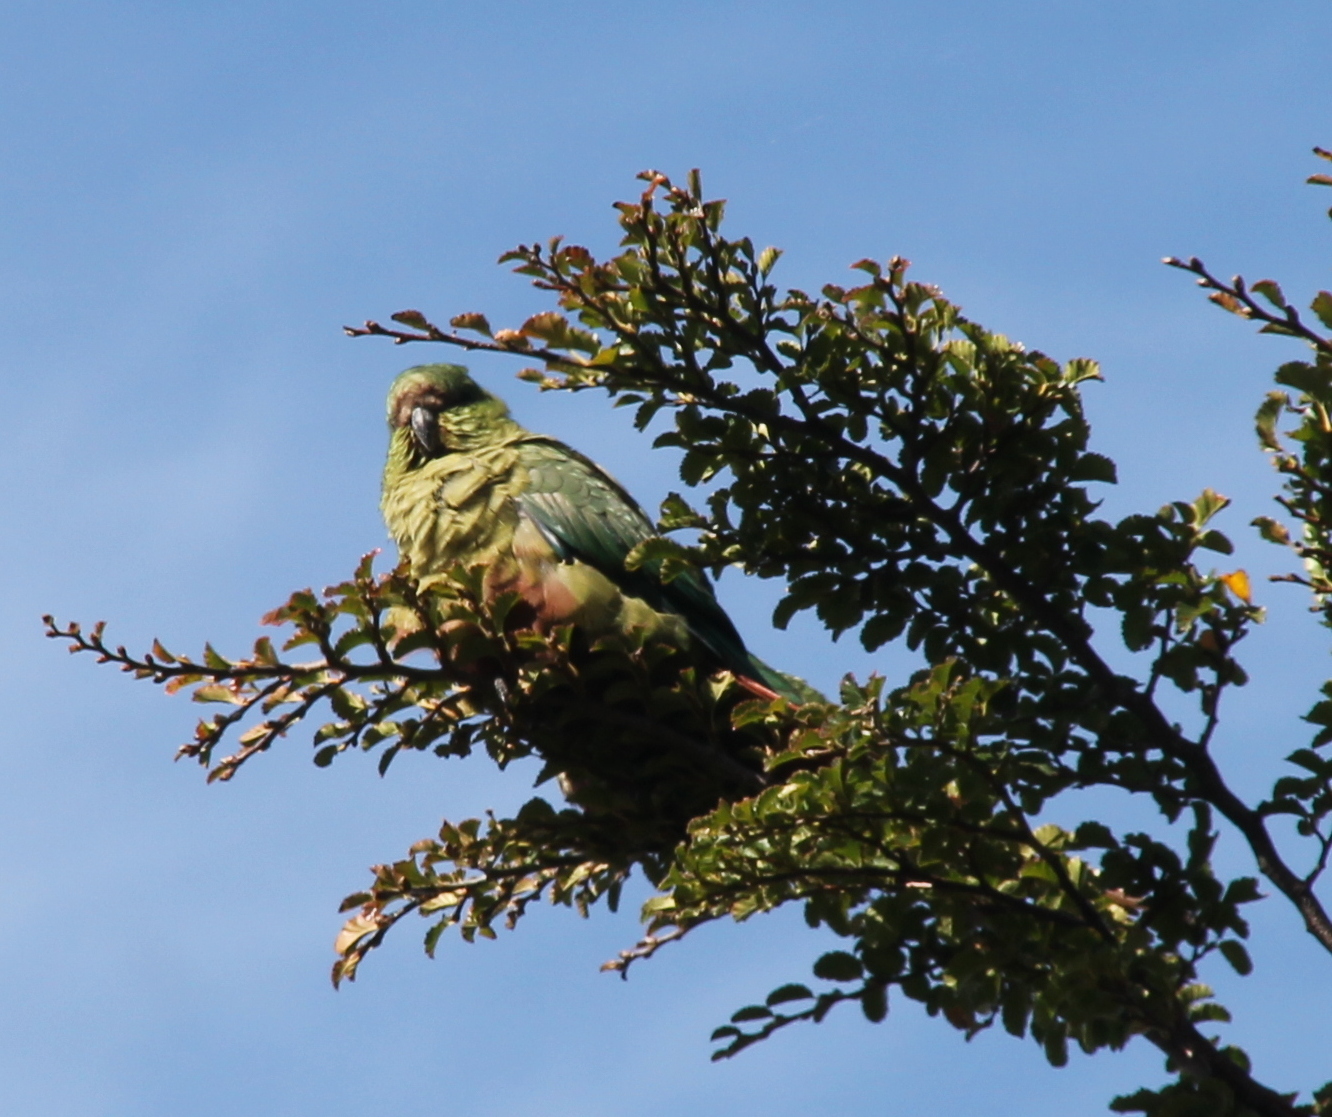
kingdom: Animalia
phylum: Chordata
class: Aves
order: Psittaciformes
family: Psittacidae
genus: Enicognathus
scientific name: Enicognathus ferrugineus
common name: Austral parakeet
